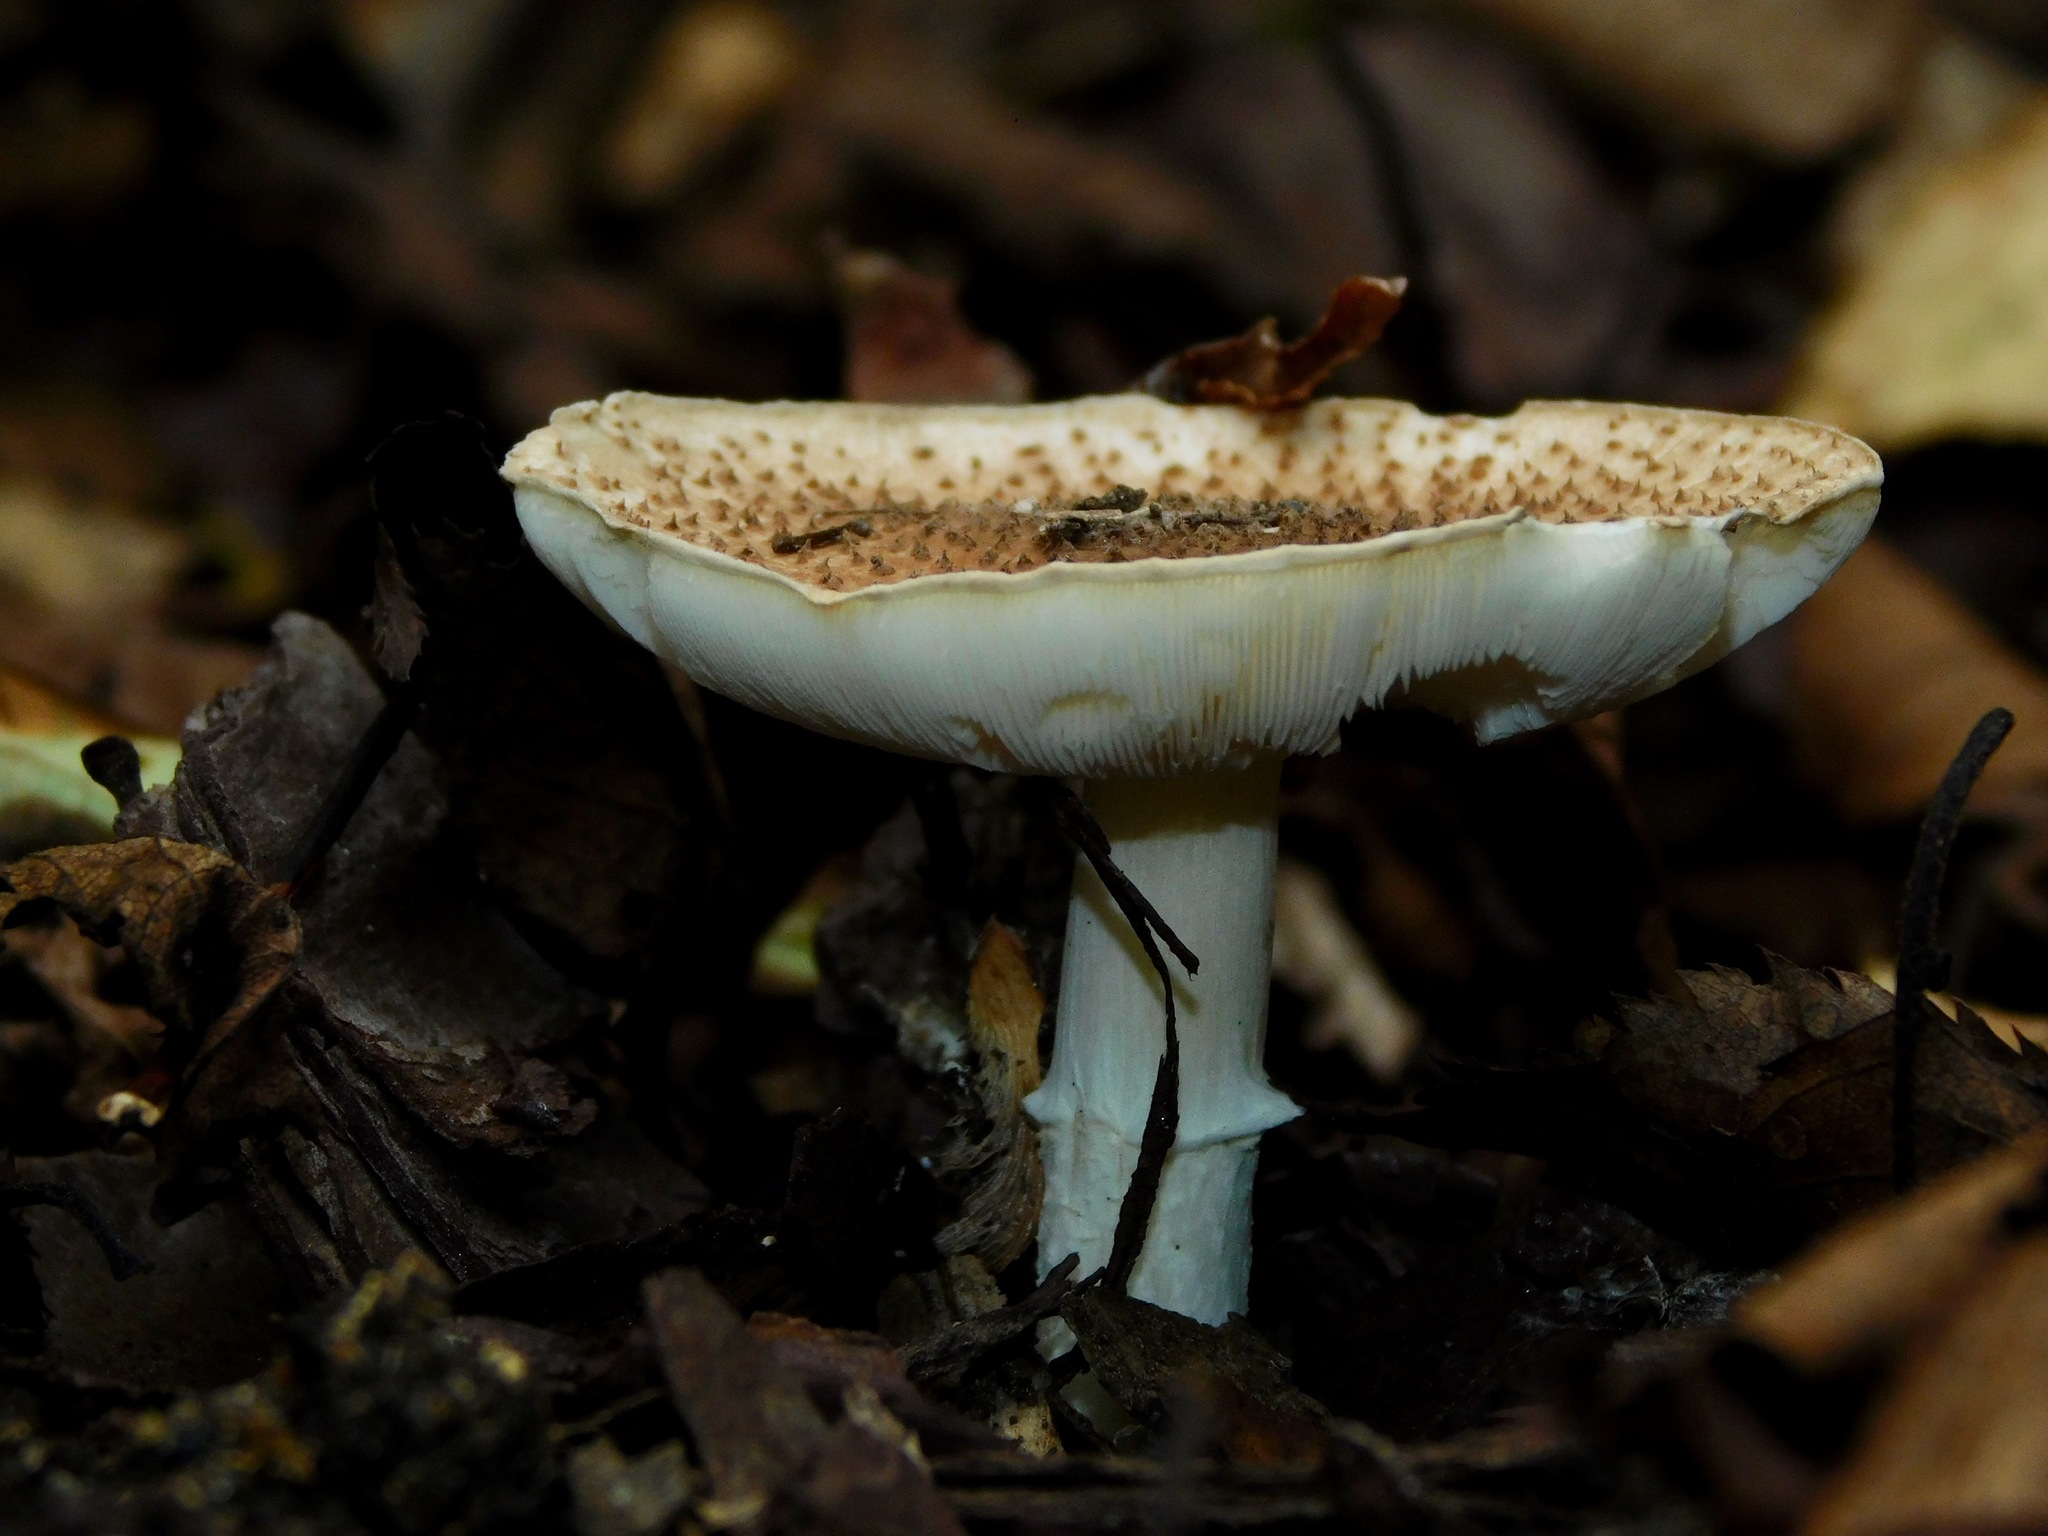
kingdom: Fungi
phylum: Basidiomycota
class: Agaricomycetes
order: Agaricales
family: Agaricaceae
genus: Echinoderma
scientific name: Echinoderma asperum
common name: Freckled dapperling
